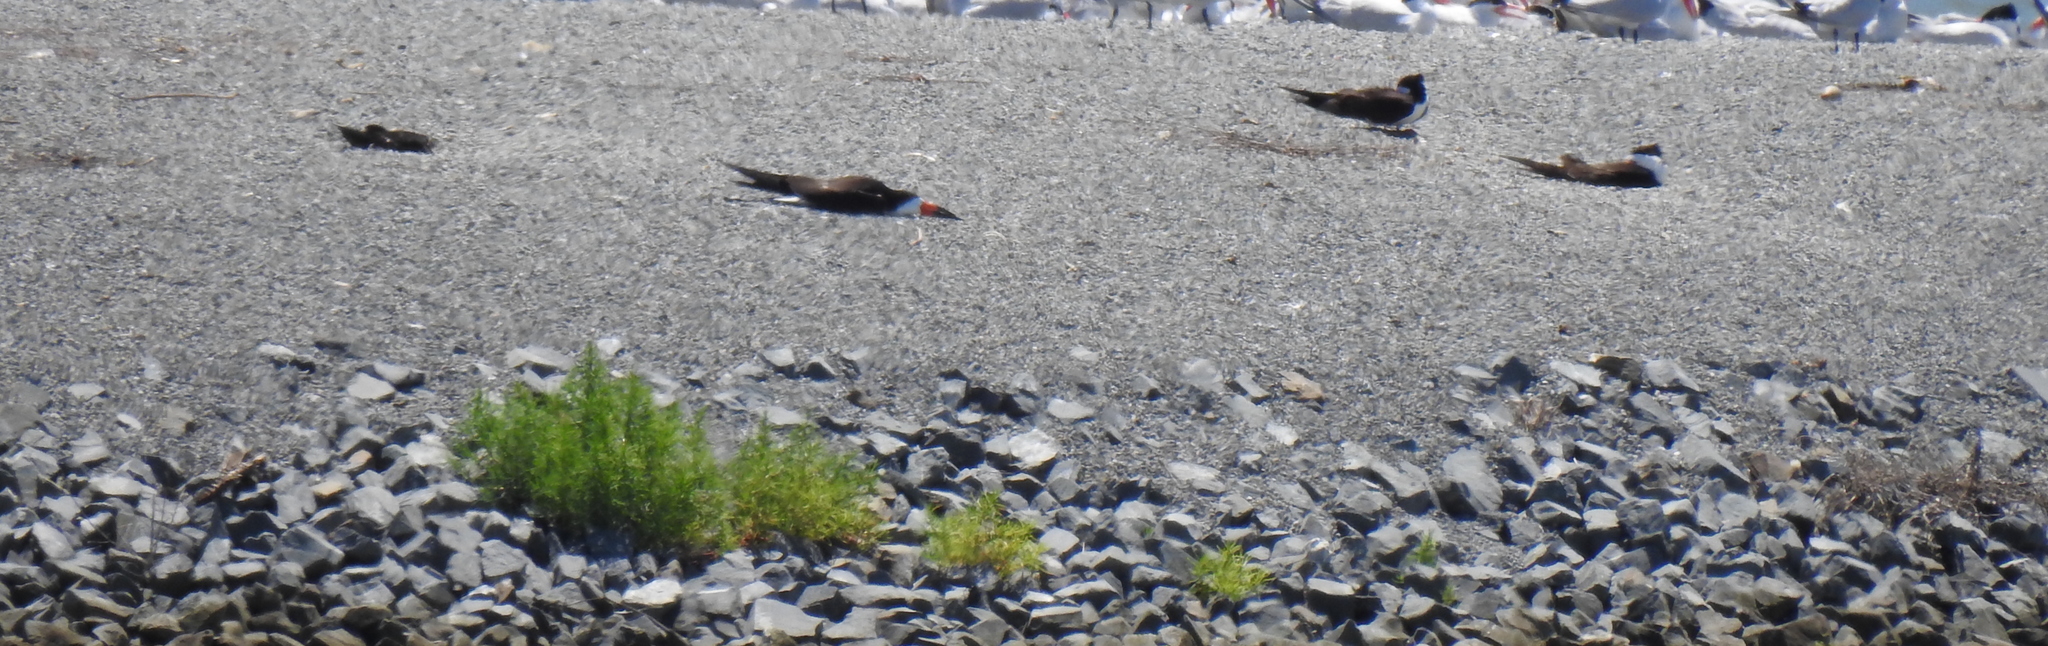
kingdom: Animalia
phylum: Chordata
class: Aves
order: Charadriiformes
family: Laridae
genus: Rynchops
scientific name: Rynchops niger
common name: Black skimmer
